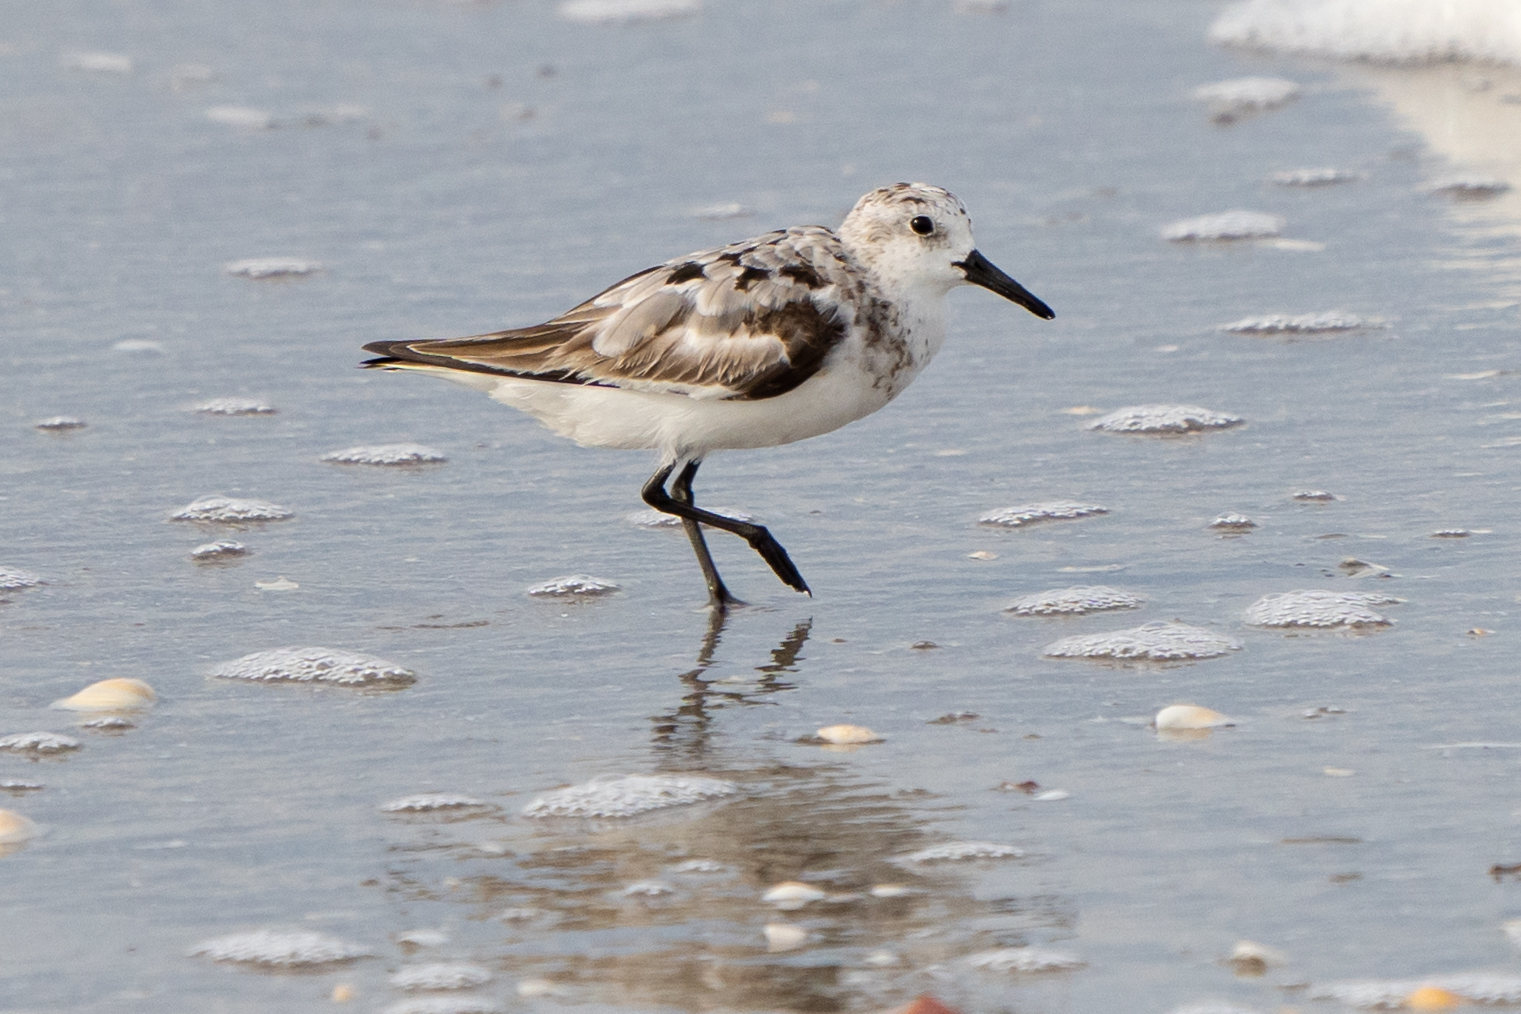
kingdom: Animalia
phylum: Chordata
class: Aves
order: Charadriiformes
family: Scolopacidae
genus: Calidris
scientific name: Calidris alba
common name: Sanderling
